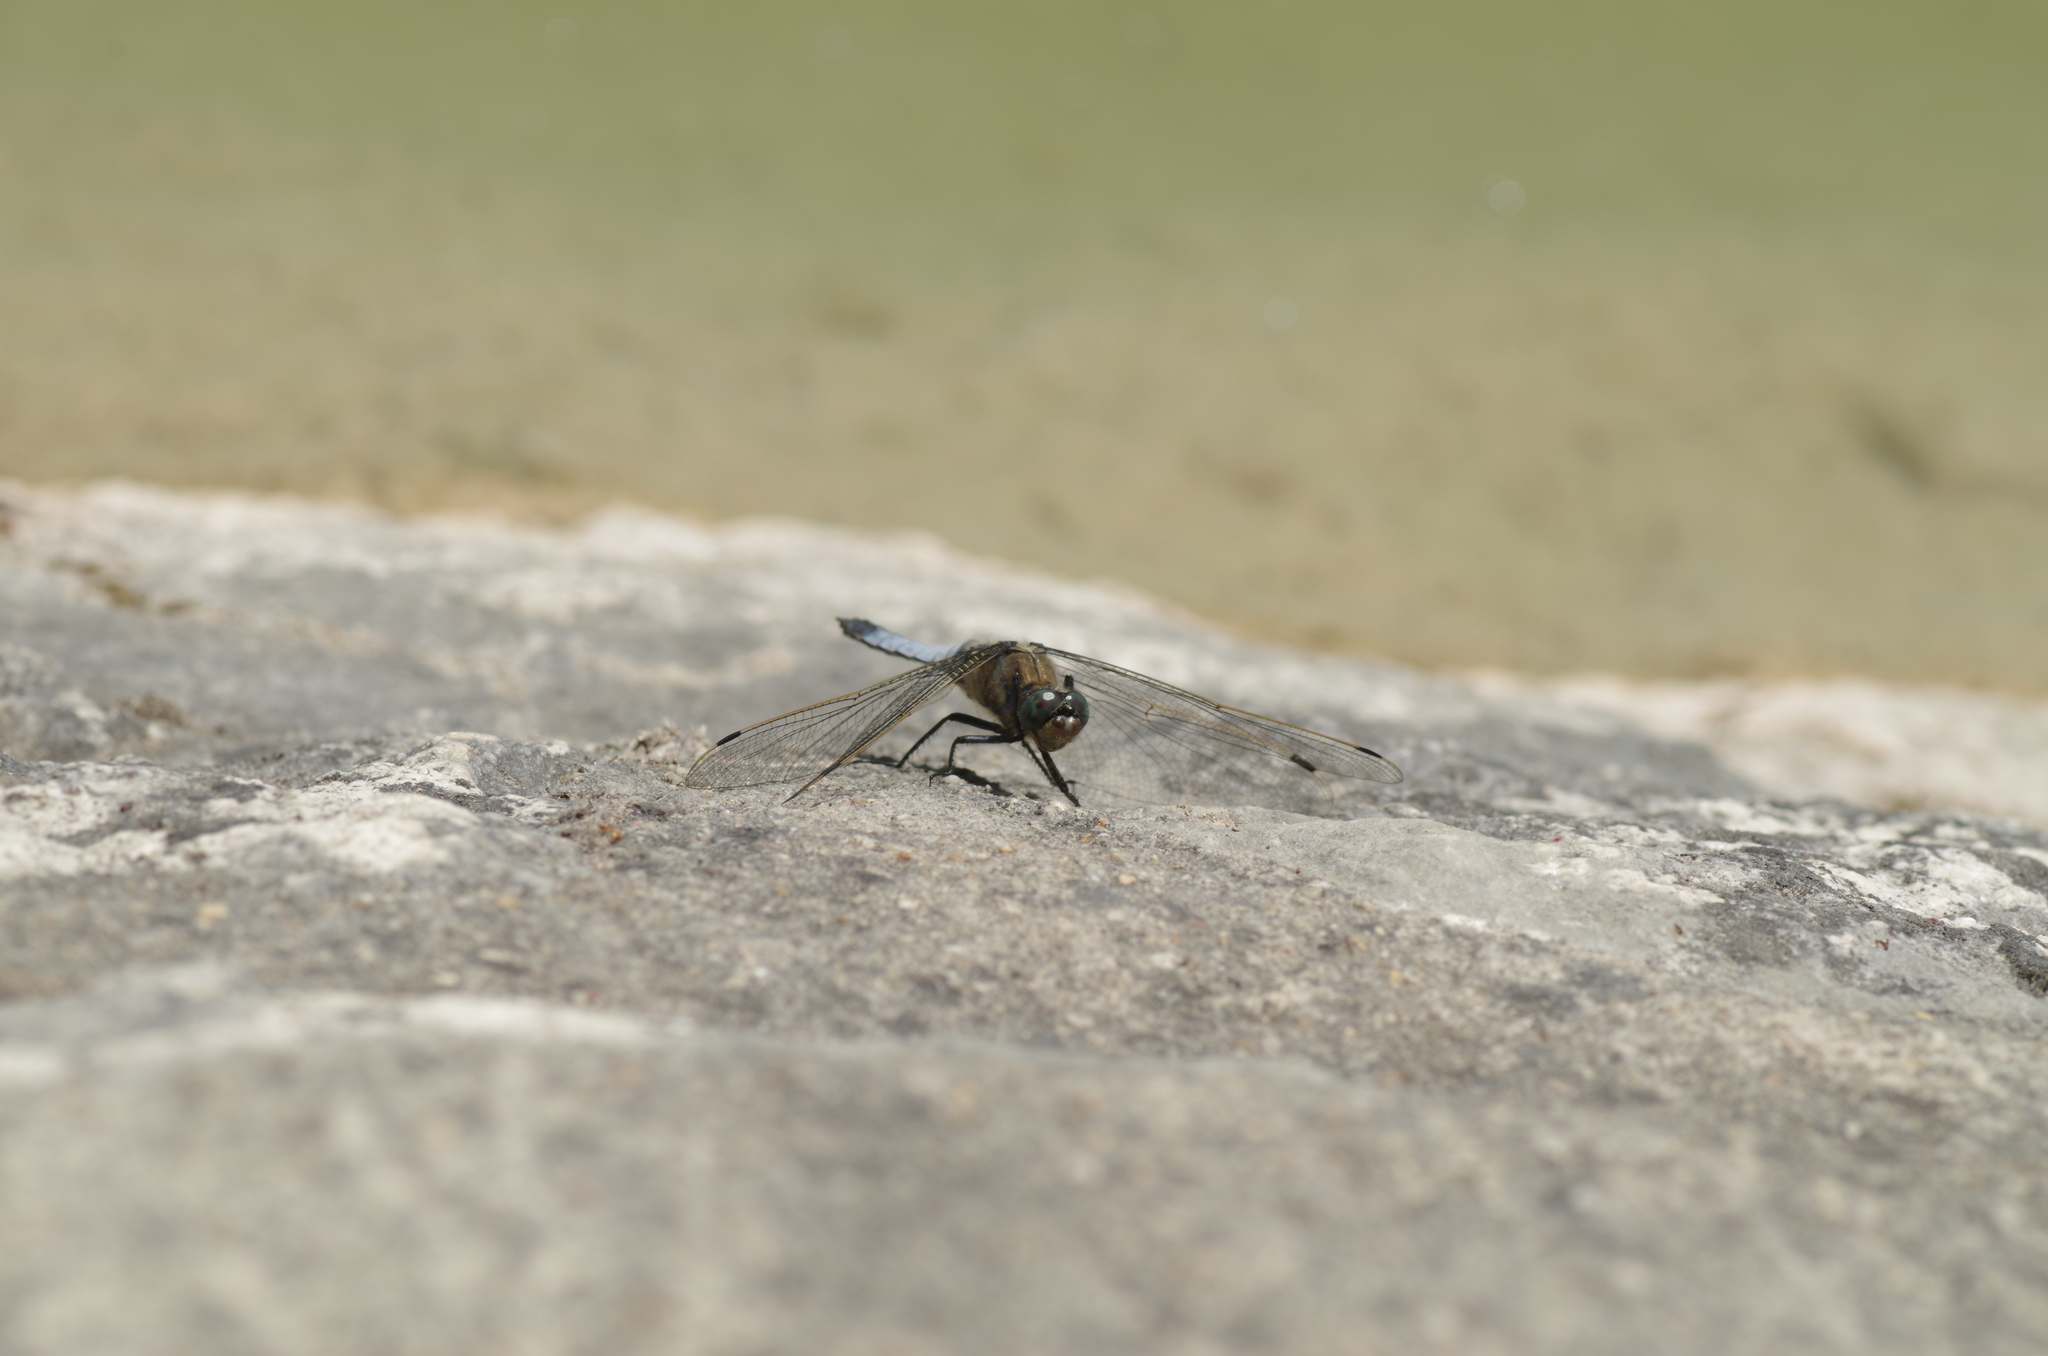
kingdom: Animalia
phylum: Arthropoda
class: Insecta
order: Odonata
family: Libellulidae
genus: Orthetrum
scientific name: Orthetrum cancellatum
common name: Black-tailed skimmer
